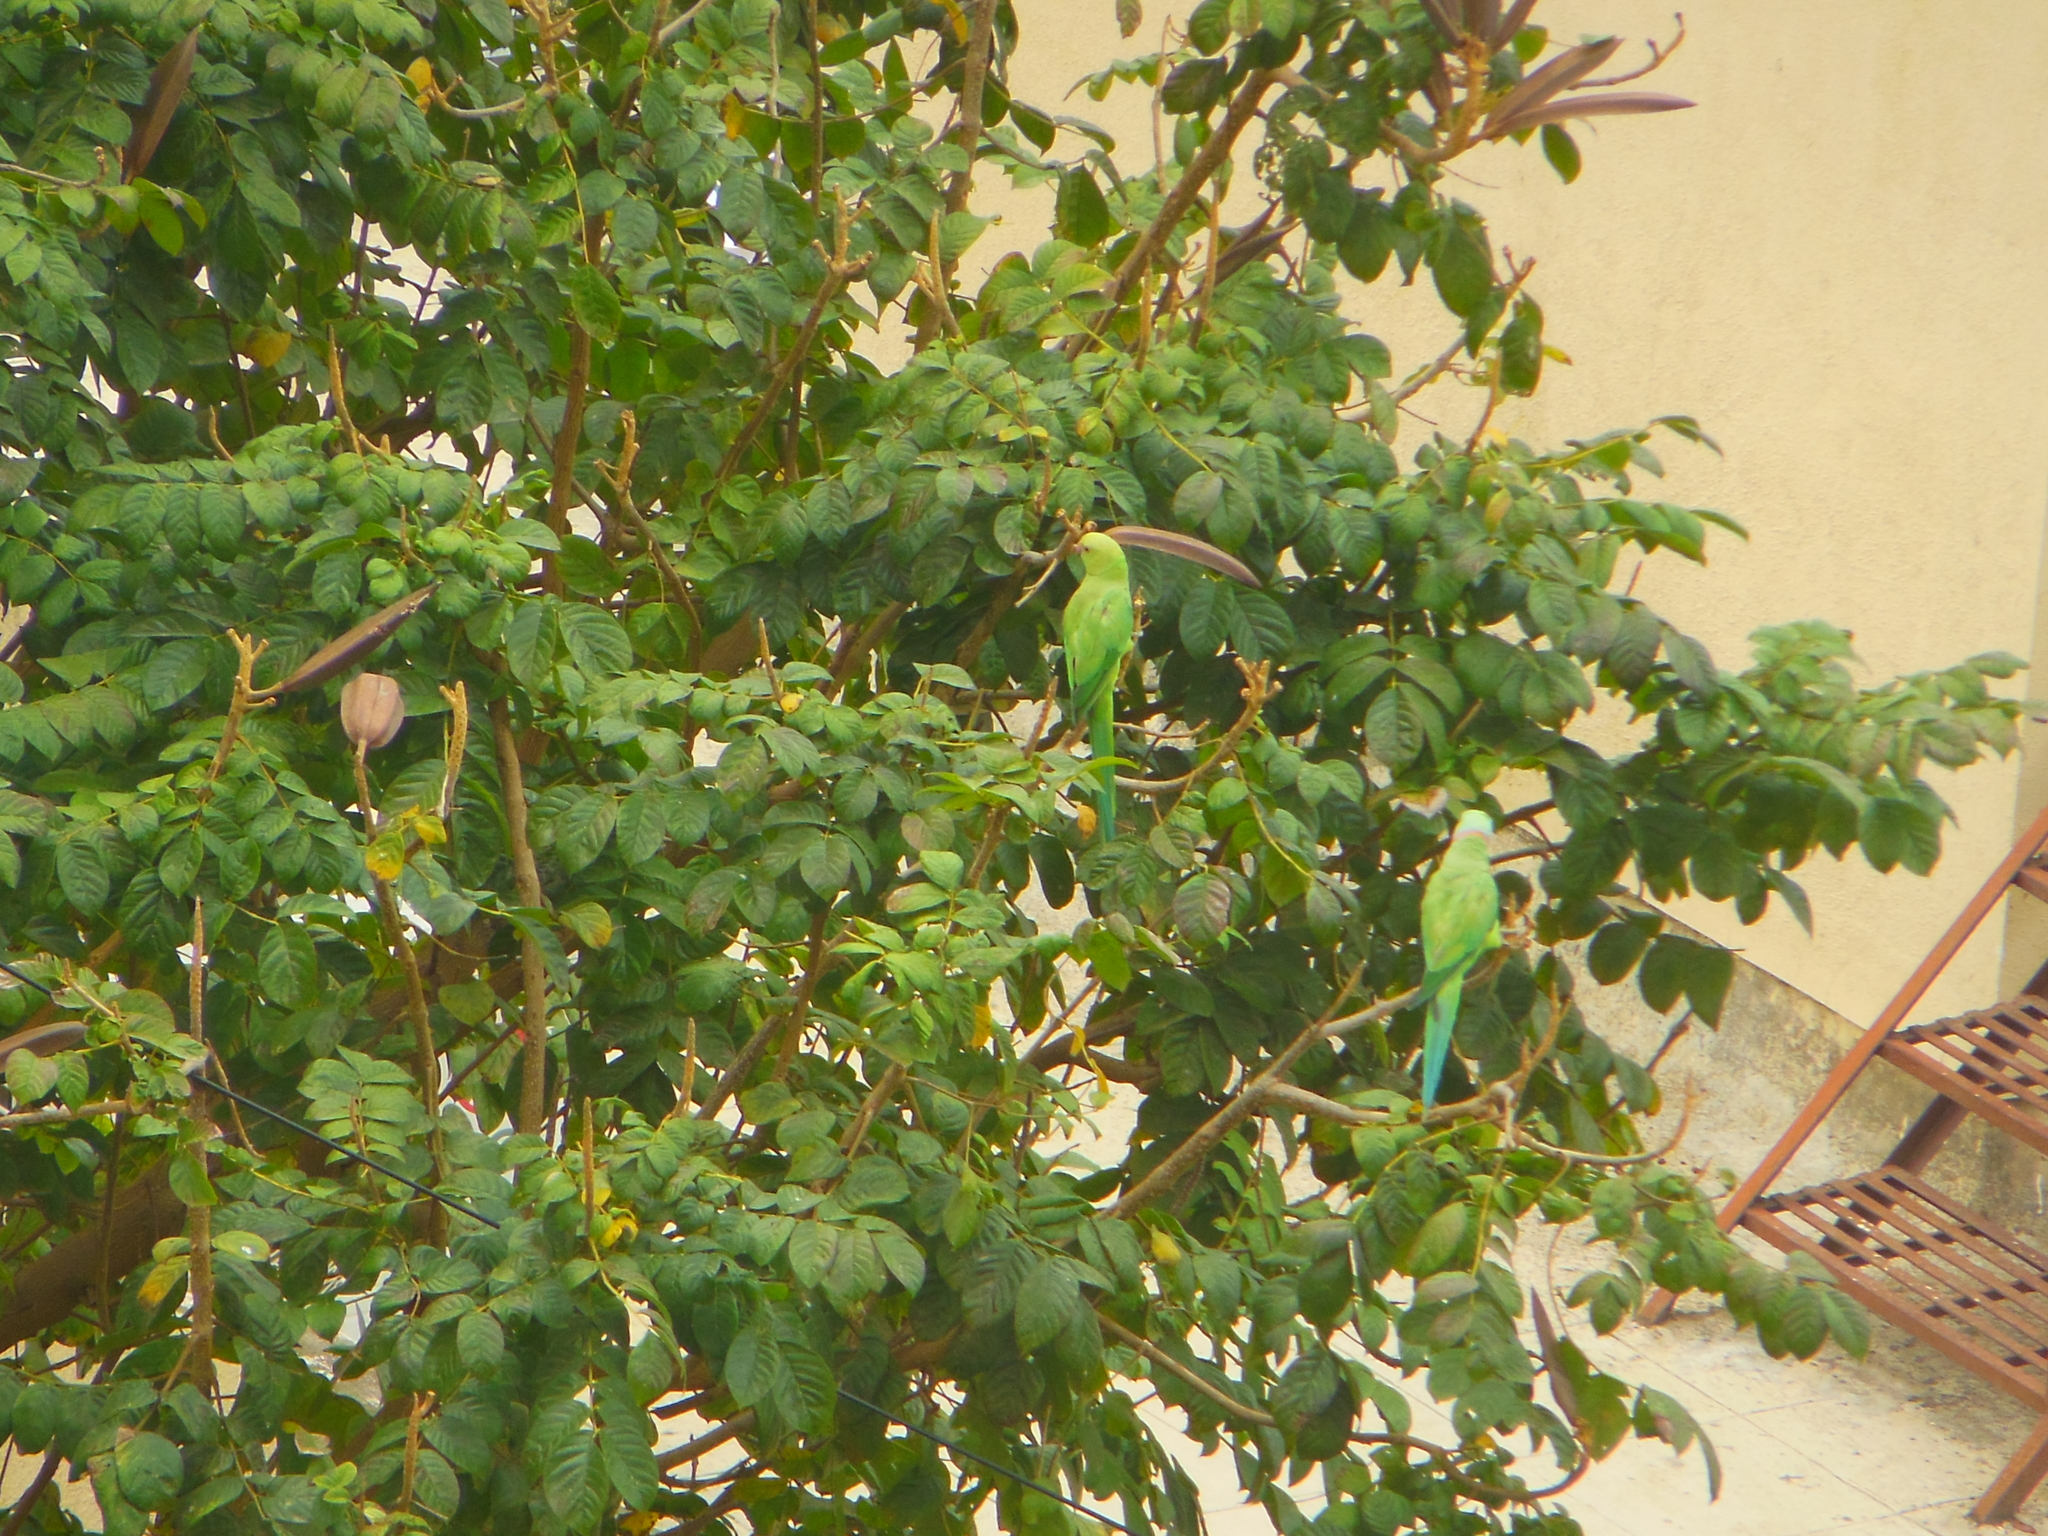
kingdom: Animalia
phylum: Chordata
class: Aves
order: Psittaciformes
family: Psittacidae
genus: Psittacula
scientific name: Psittacula krameri
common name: Rose-ringed parakeet
